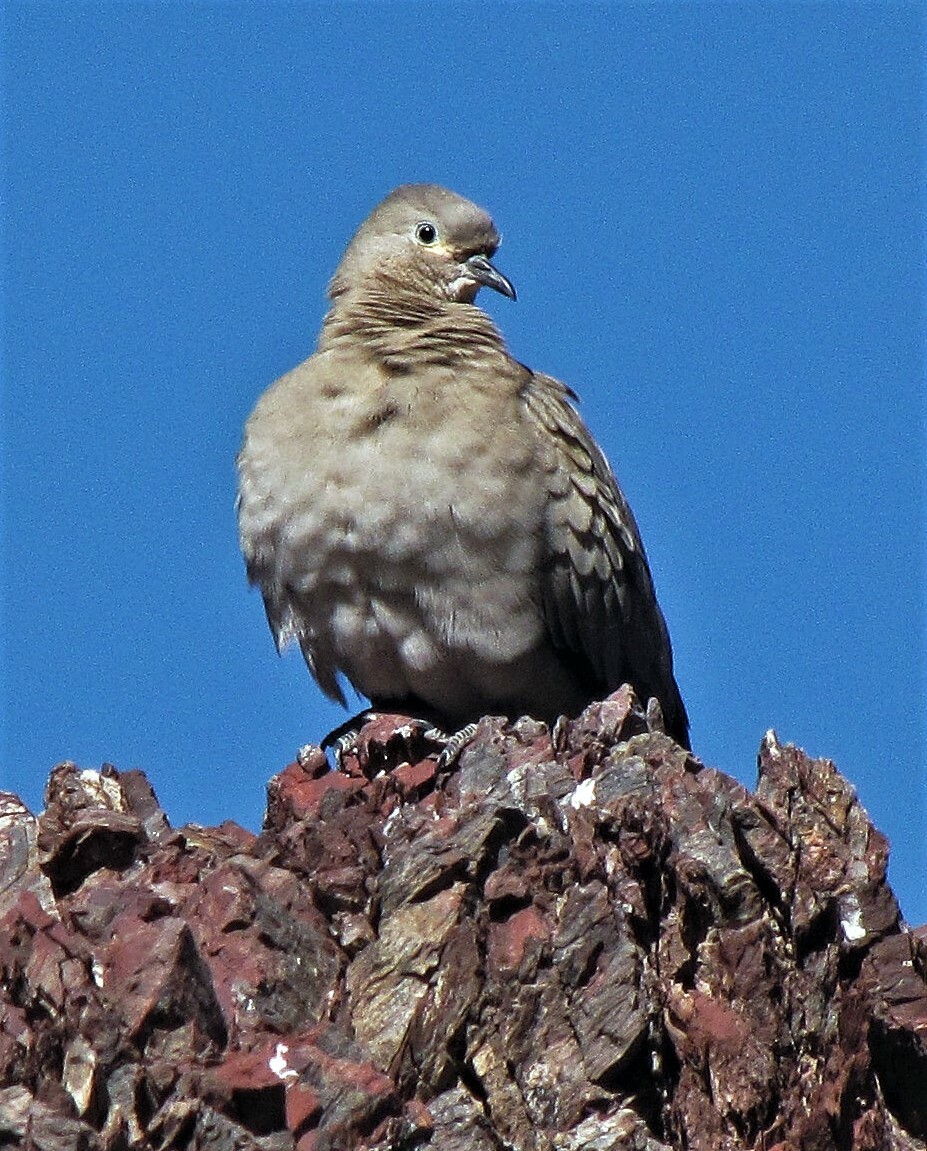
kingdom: Animalia
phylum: Chordata
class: Aves
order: Columbiformes
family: Columbidae
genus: Metriopelia
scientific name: Metriopelia melanoptera
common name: Black-winged ground dove
